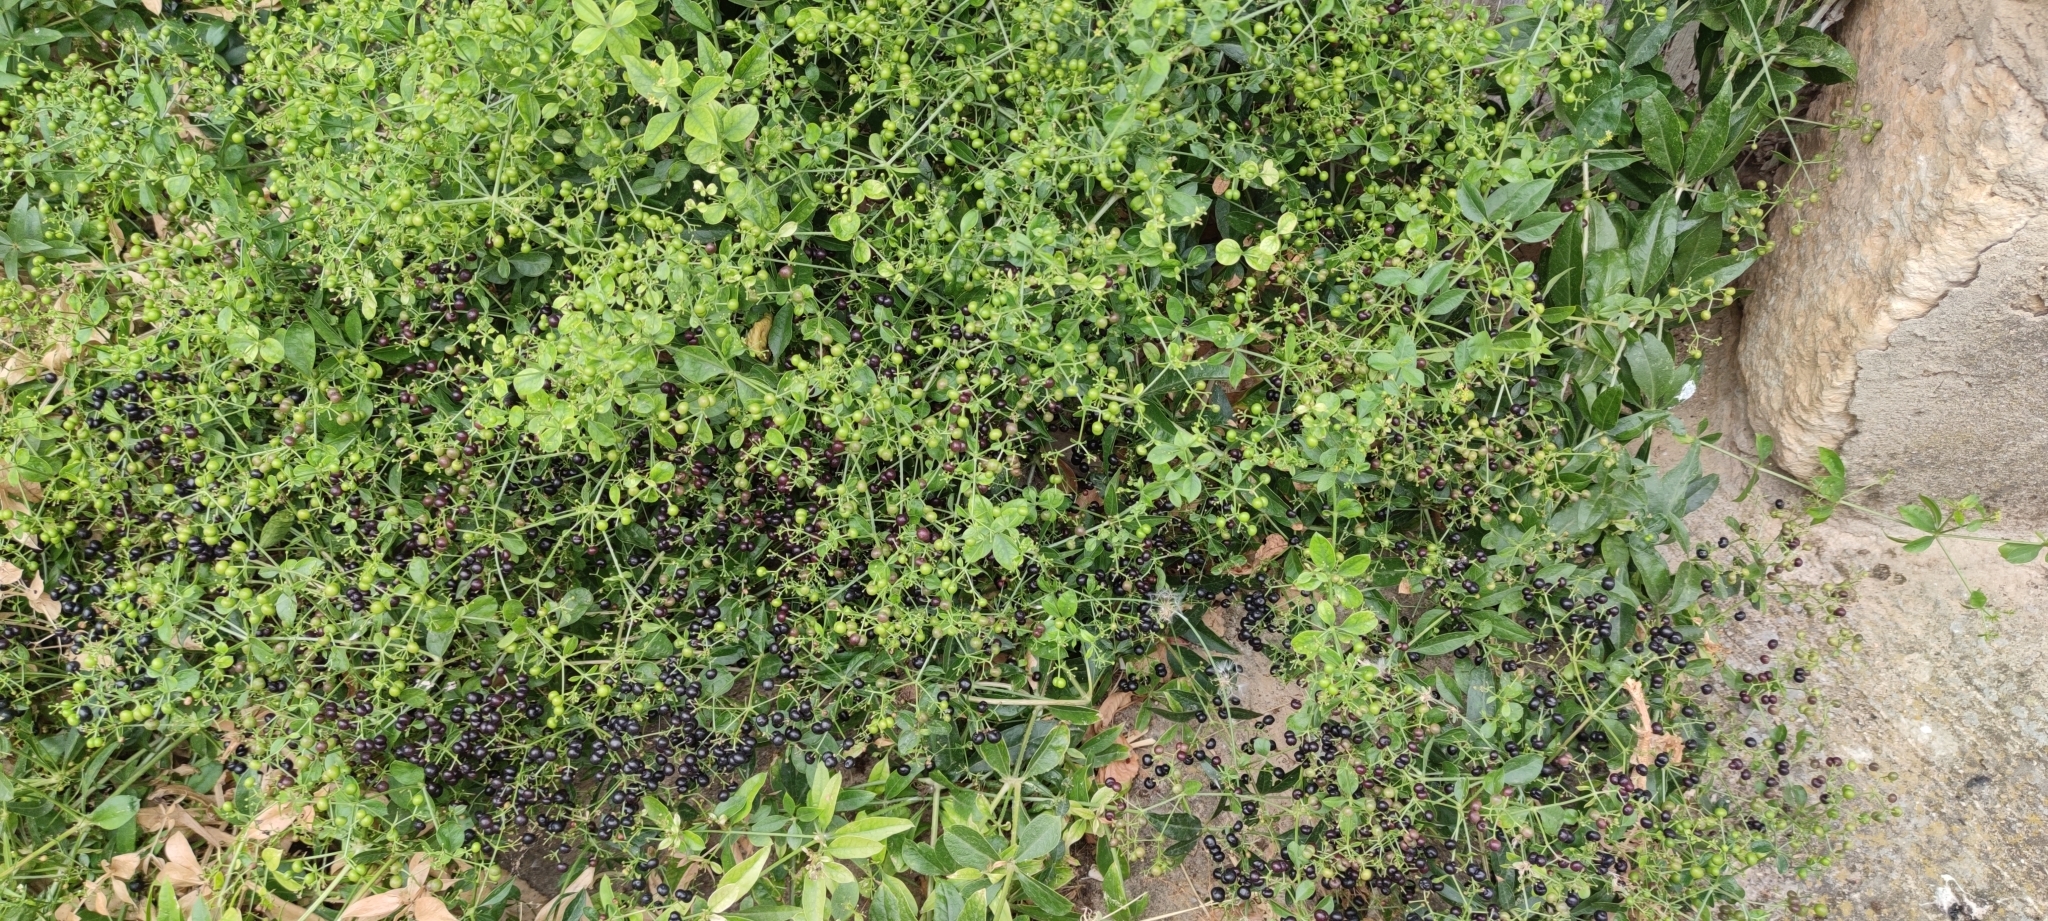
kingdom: Plantae
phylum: Tracheophyta
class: Magnoliopsida
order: Gentianales
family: Rubiaceae
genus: Rubia
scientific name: Rubia tinctorum
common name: Dyer's madder
